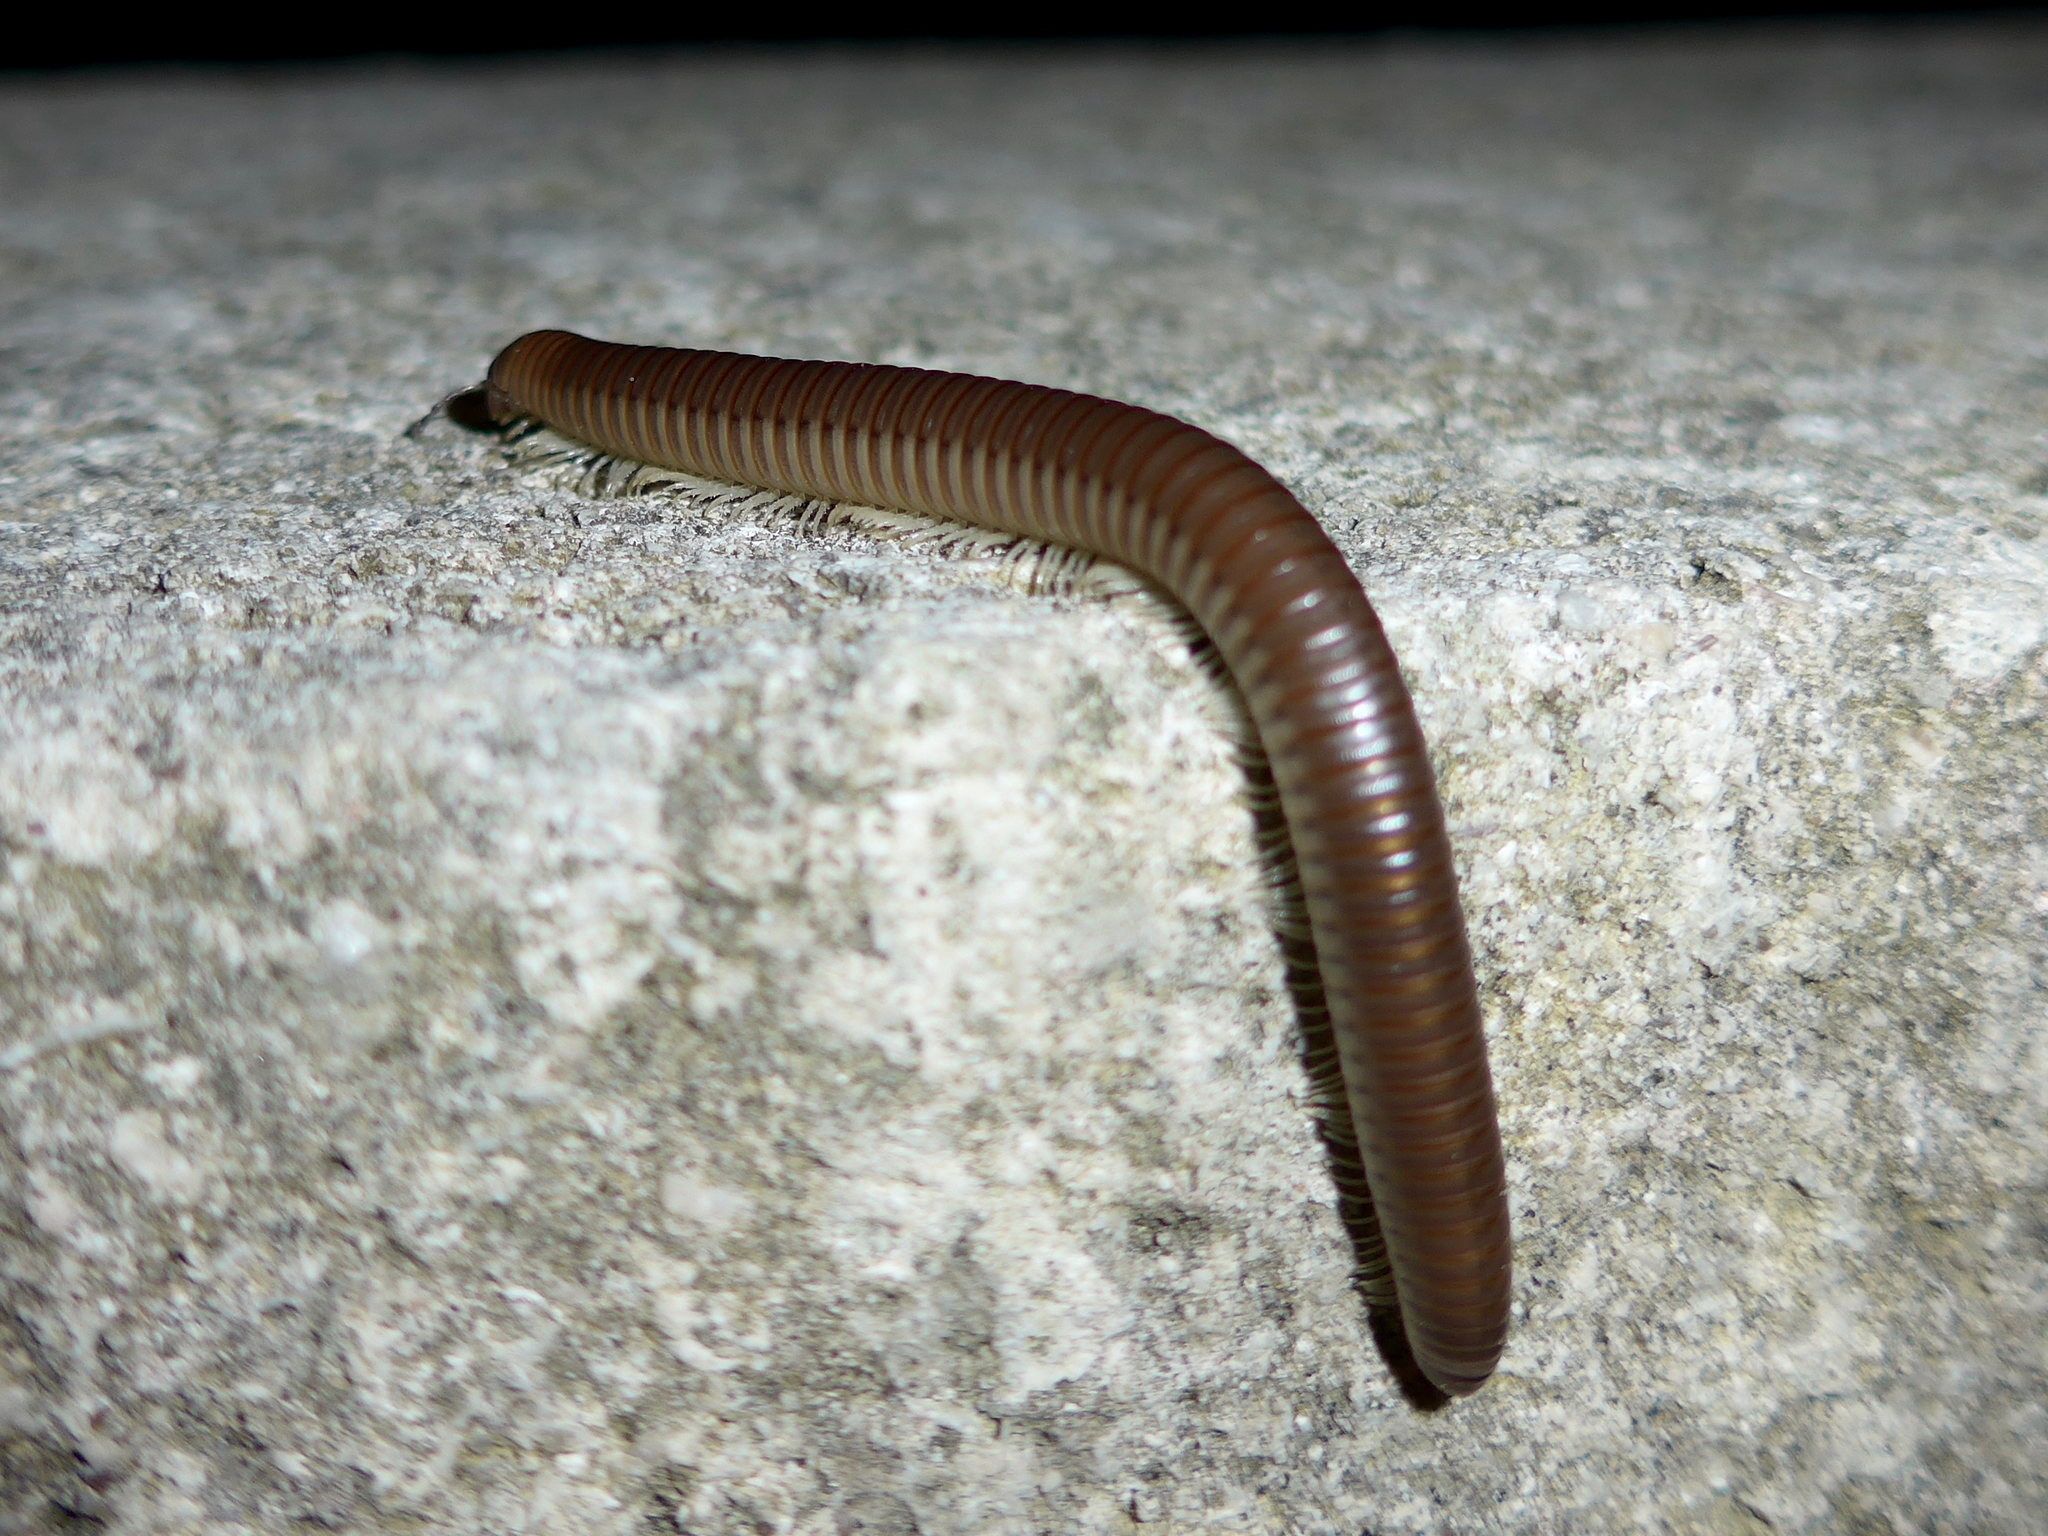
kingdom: Animalia
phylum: Arthropoda
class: Diplopoda
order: Julida
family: Julidae
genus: Pachyiulus
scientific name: Pachyiulus flavipes
